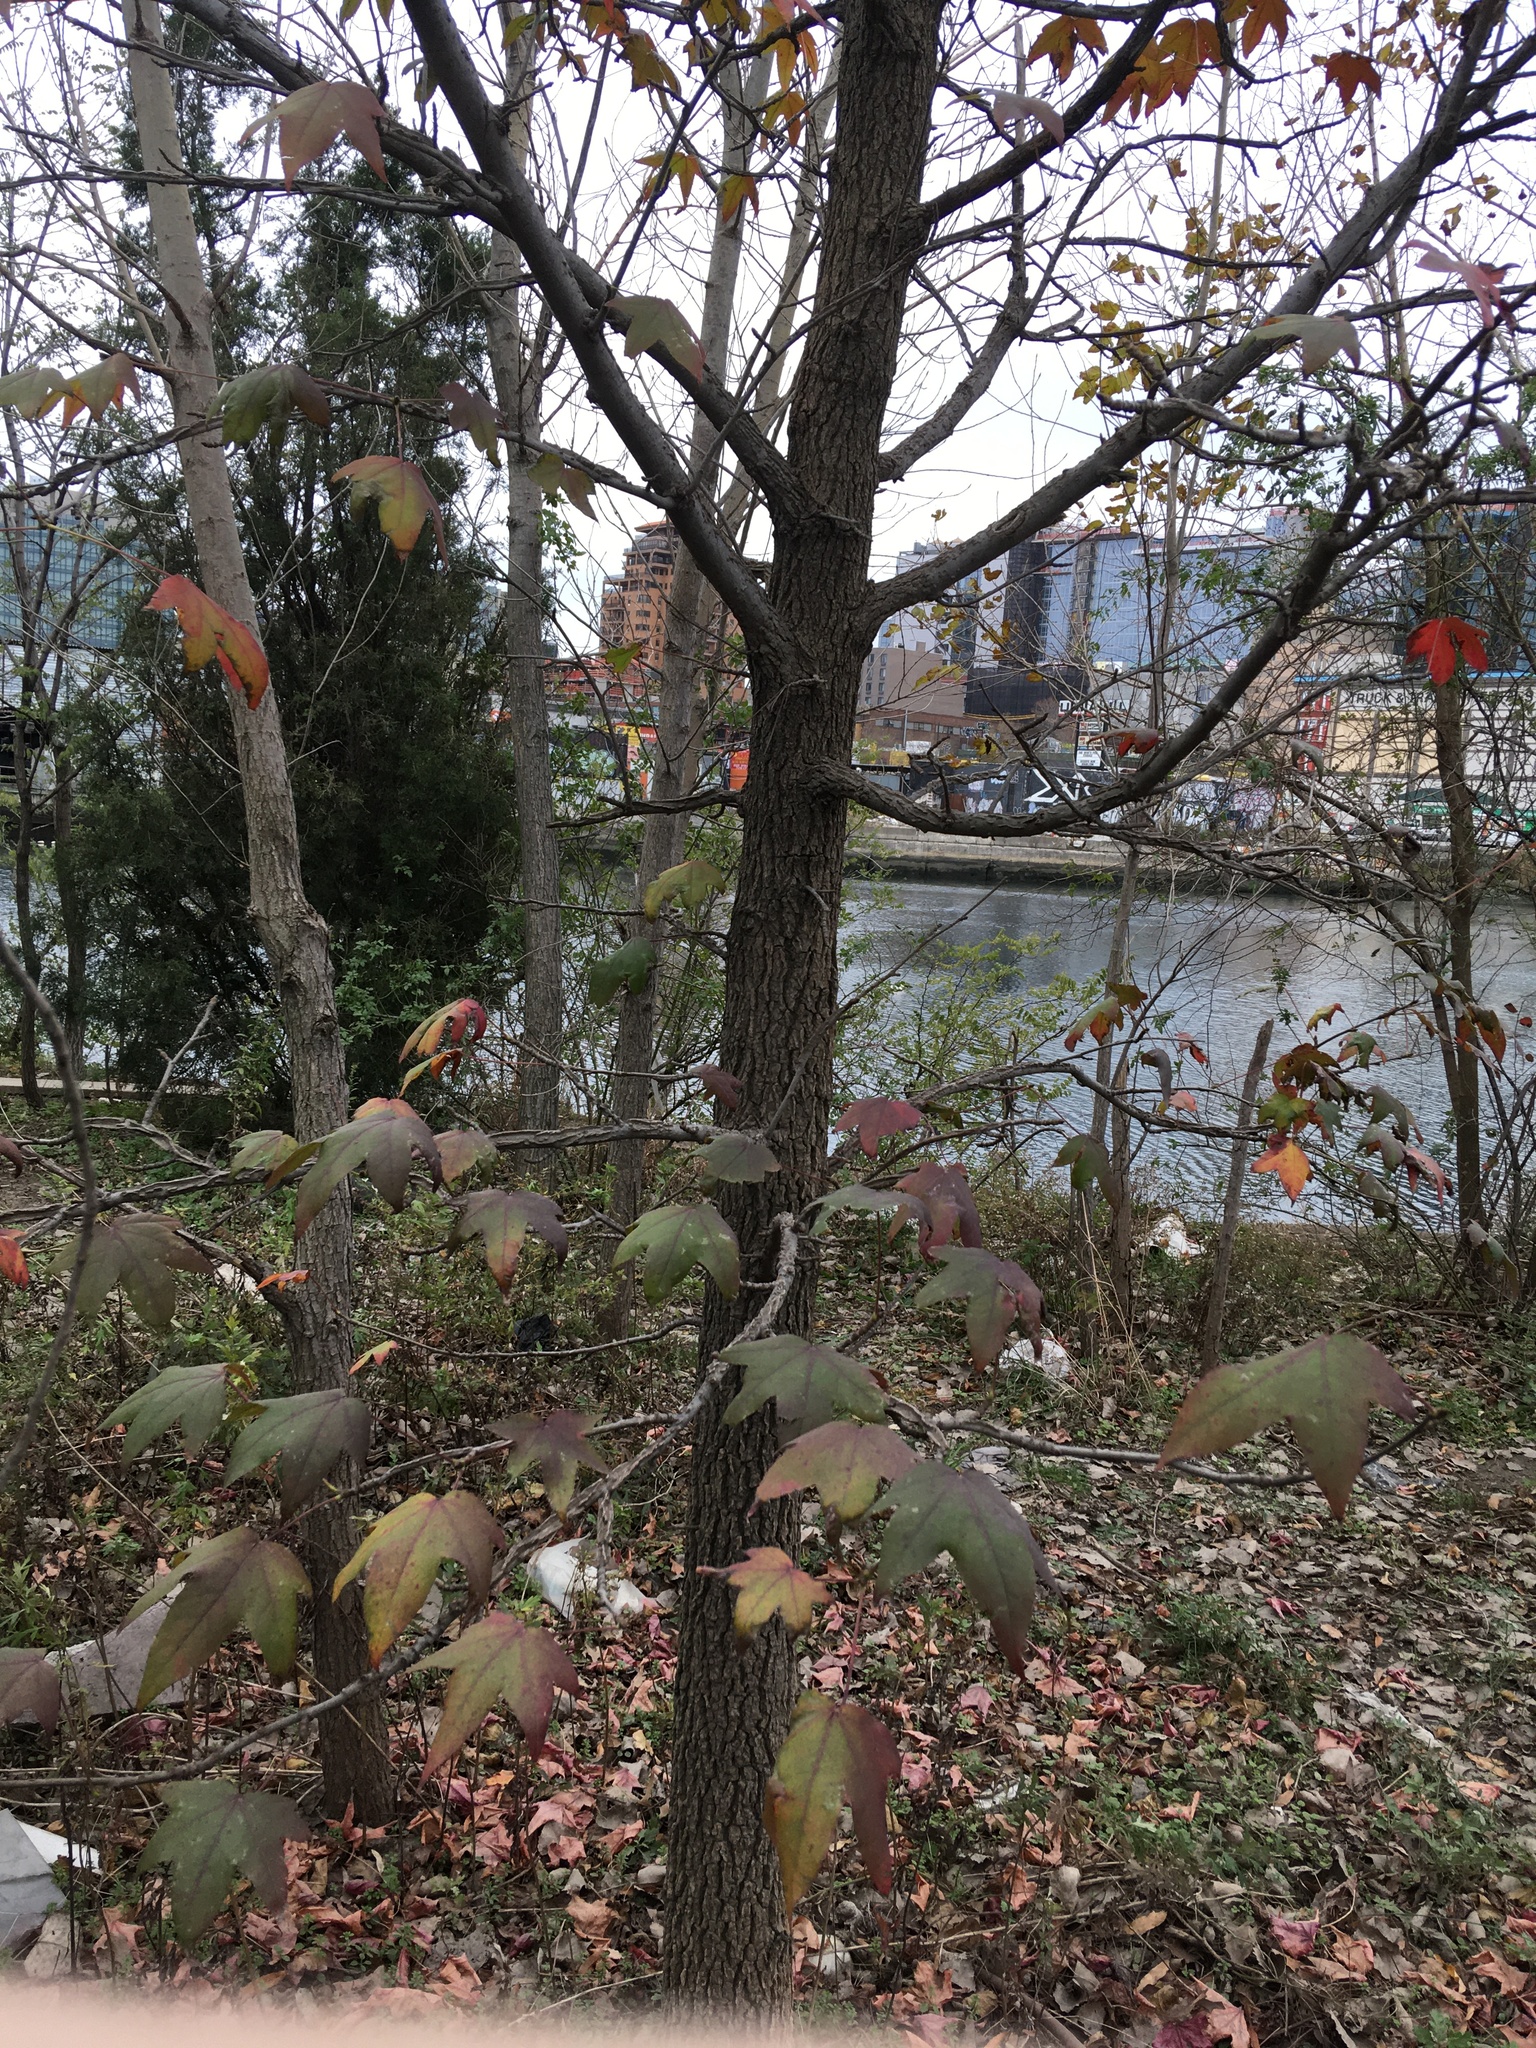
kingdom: Plantae
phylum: Tracheophyta
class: Magnoliopsida
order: Saxifragales
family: Altingiaceae
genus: Liquidambar
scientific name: Liquidambar styraciflua
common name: Sweet gum
